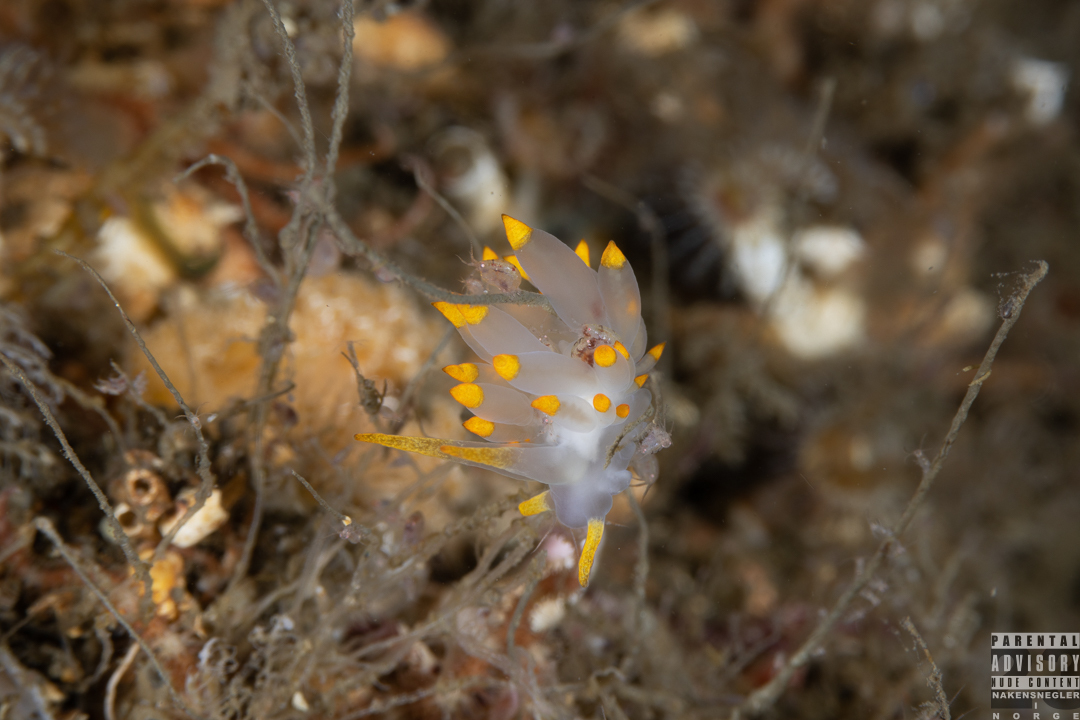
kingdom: Animalia
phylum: Mollusca
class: Gastropoda
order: Nudibranchia
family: Eubranchidae
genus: Amphorina
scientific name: Amphorina farrani
